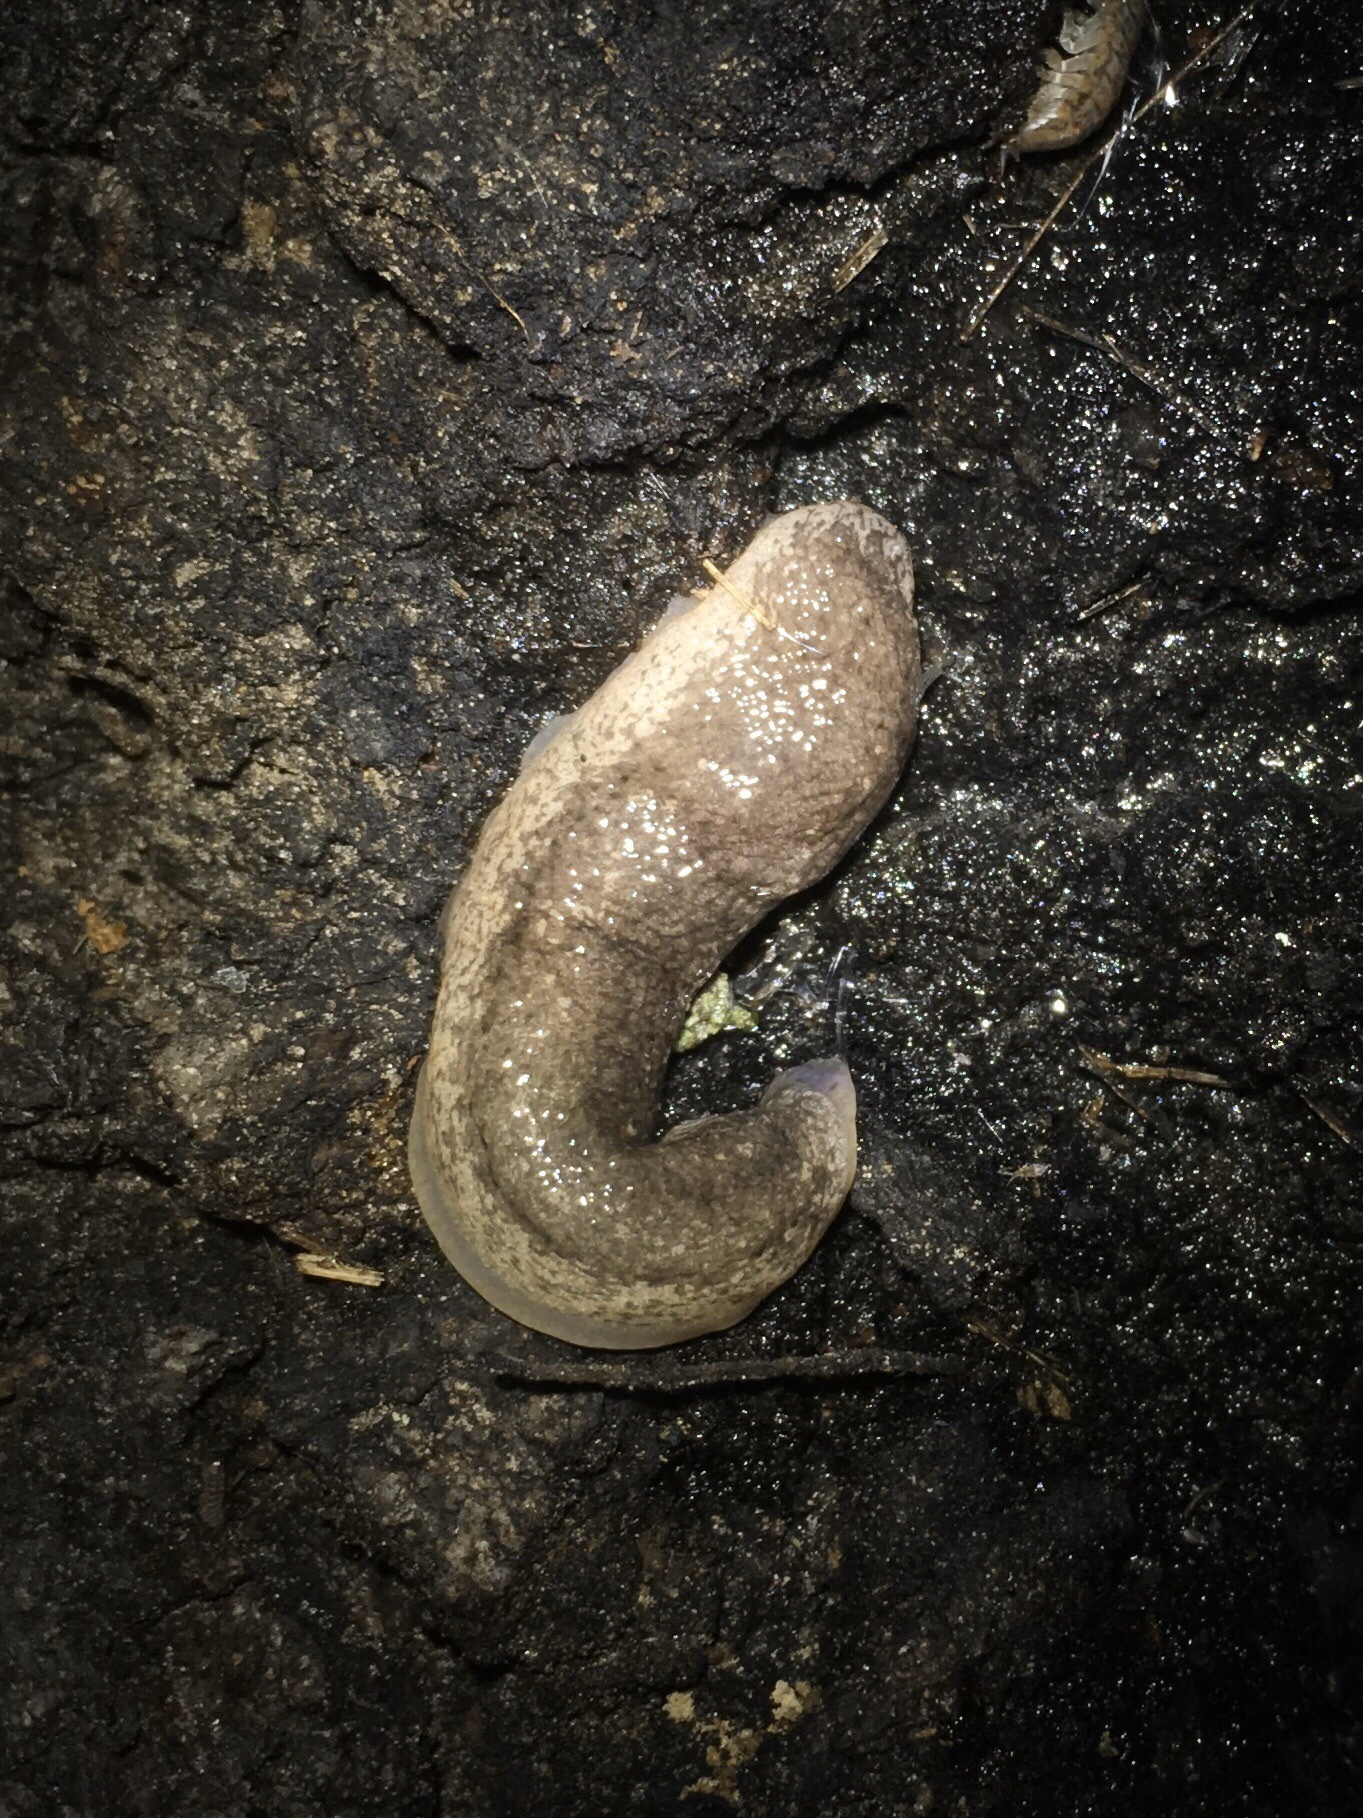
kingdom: Animalia
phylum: Mollusca
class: Gastropoda
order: Stylommatophora
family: Philomycidae
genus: Philomycus
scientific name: Philomycus togatus
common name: Toga mantleslug
